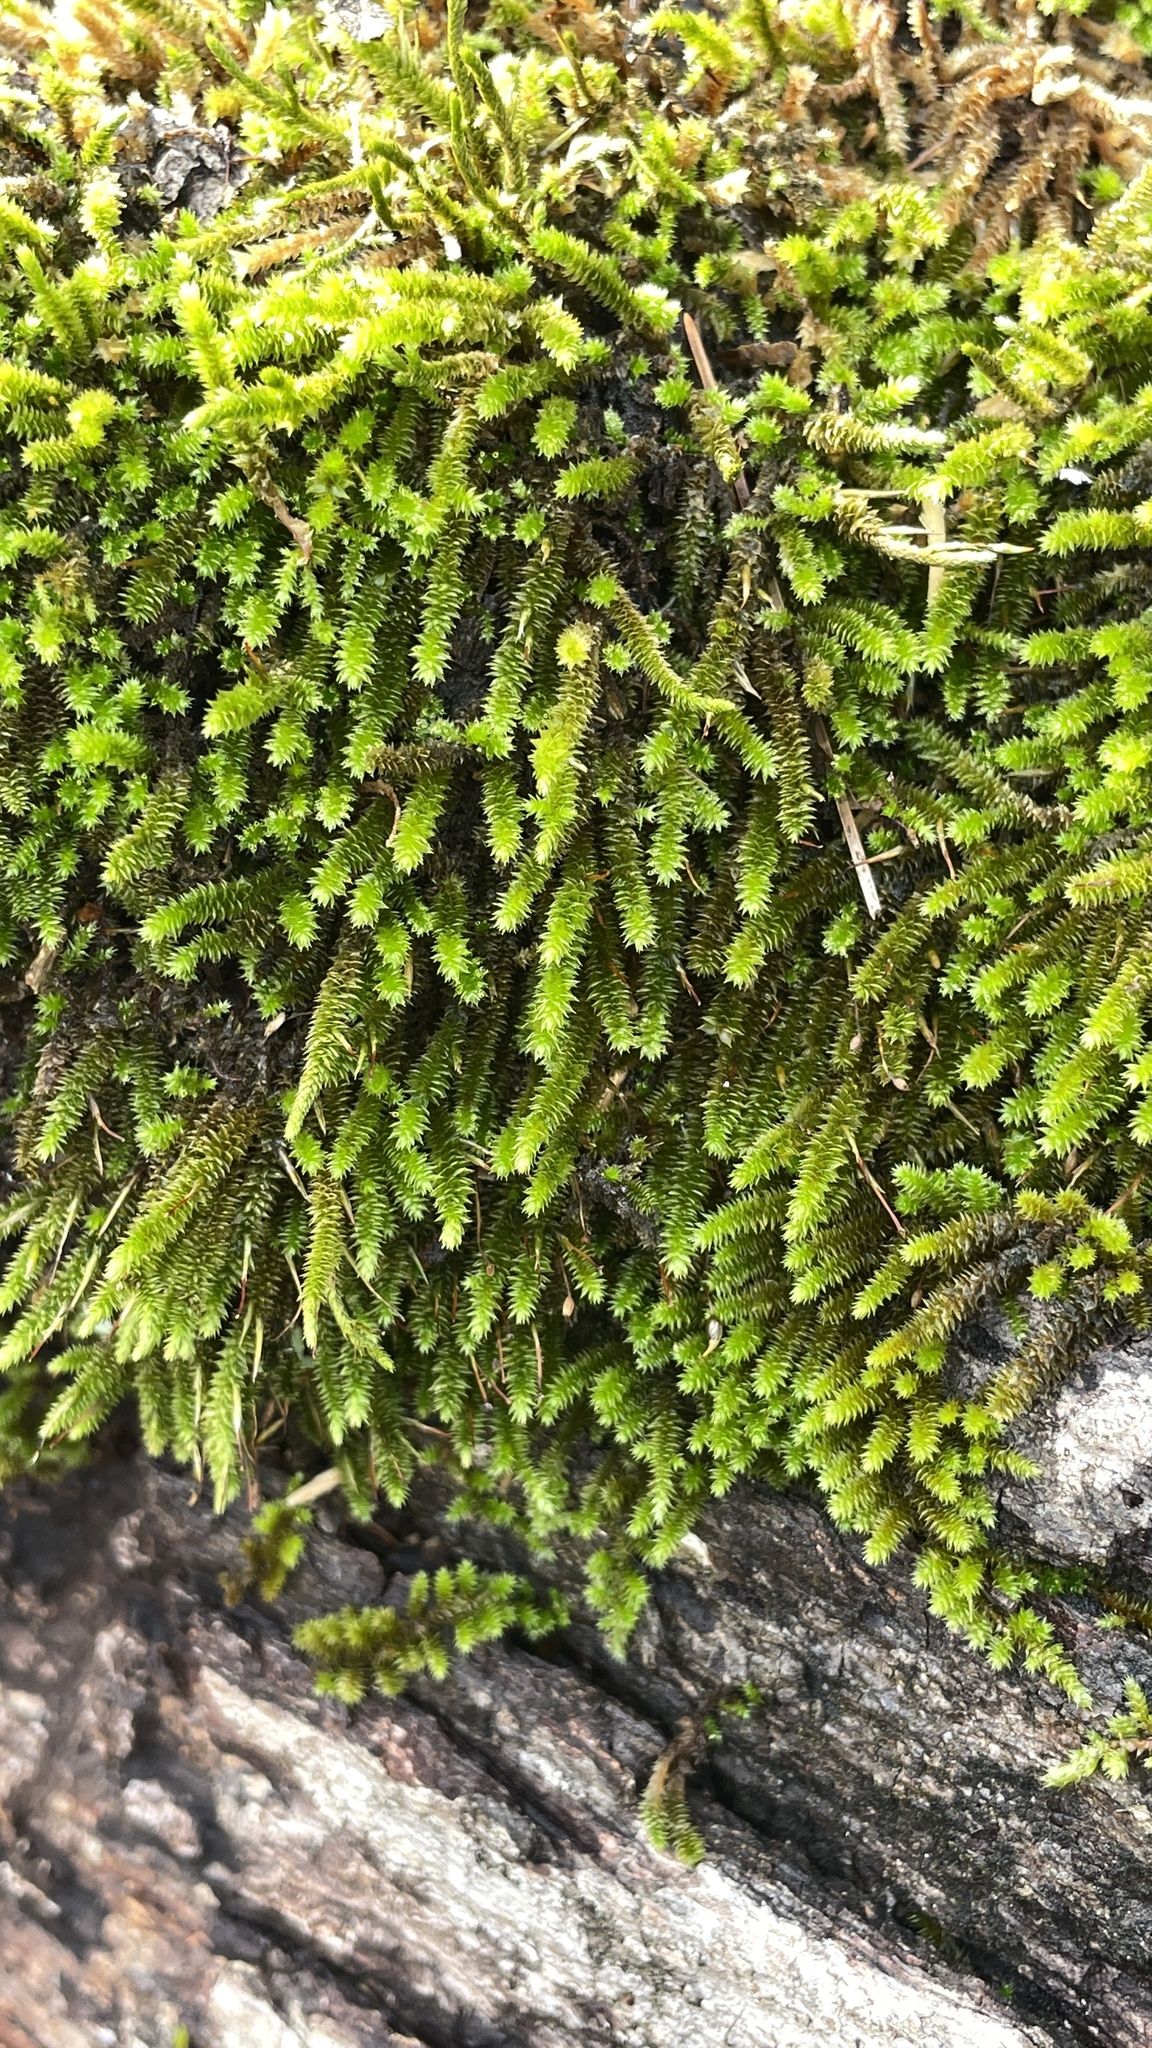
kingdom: Plantae
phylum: Bryophyta
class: Bryopsida
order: Hypnales
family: Leucodontaceae
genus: Leucodon
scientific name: Leucodon julaceus
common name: Smooth hook moss
